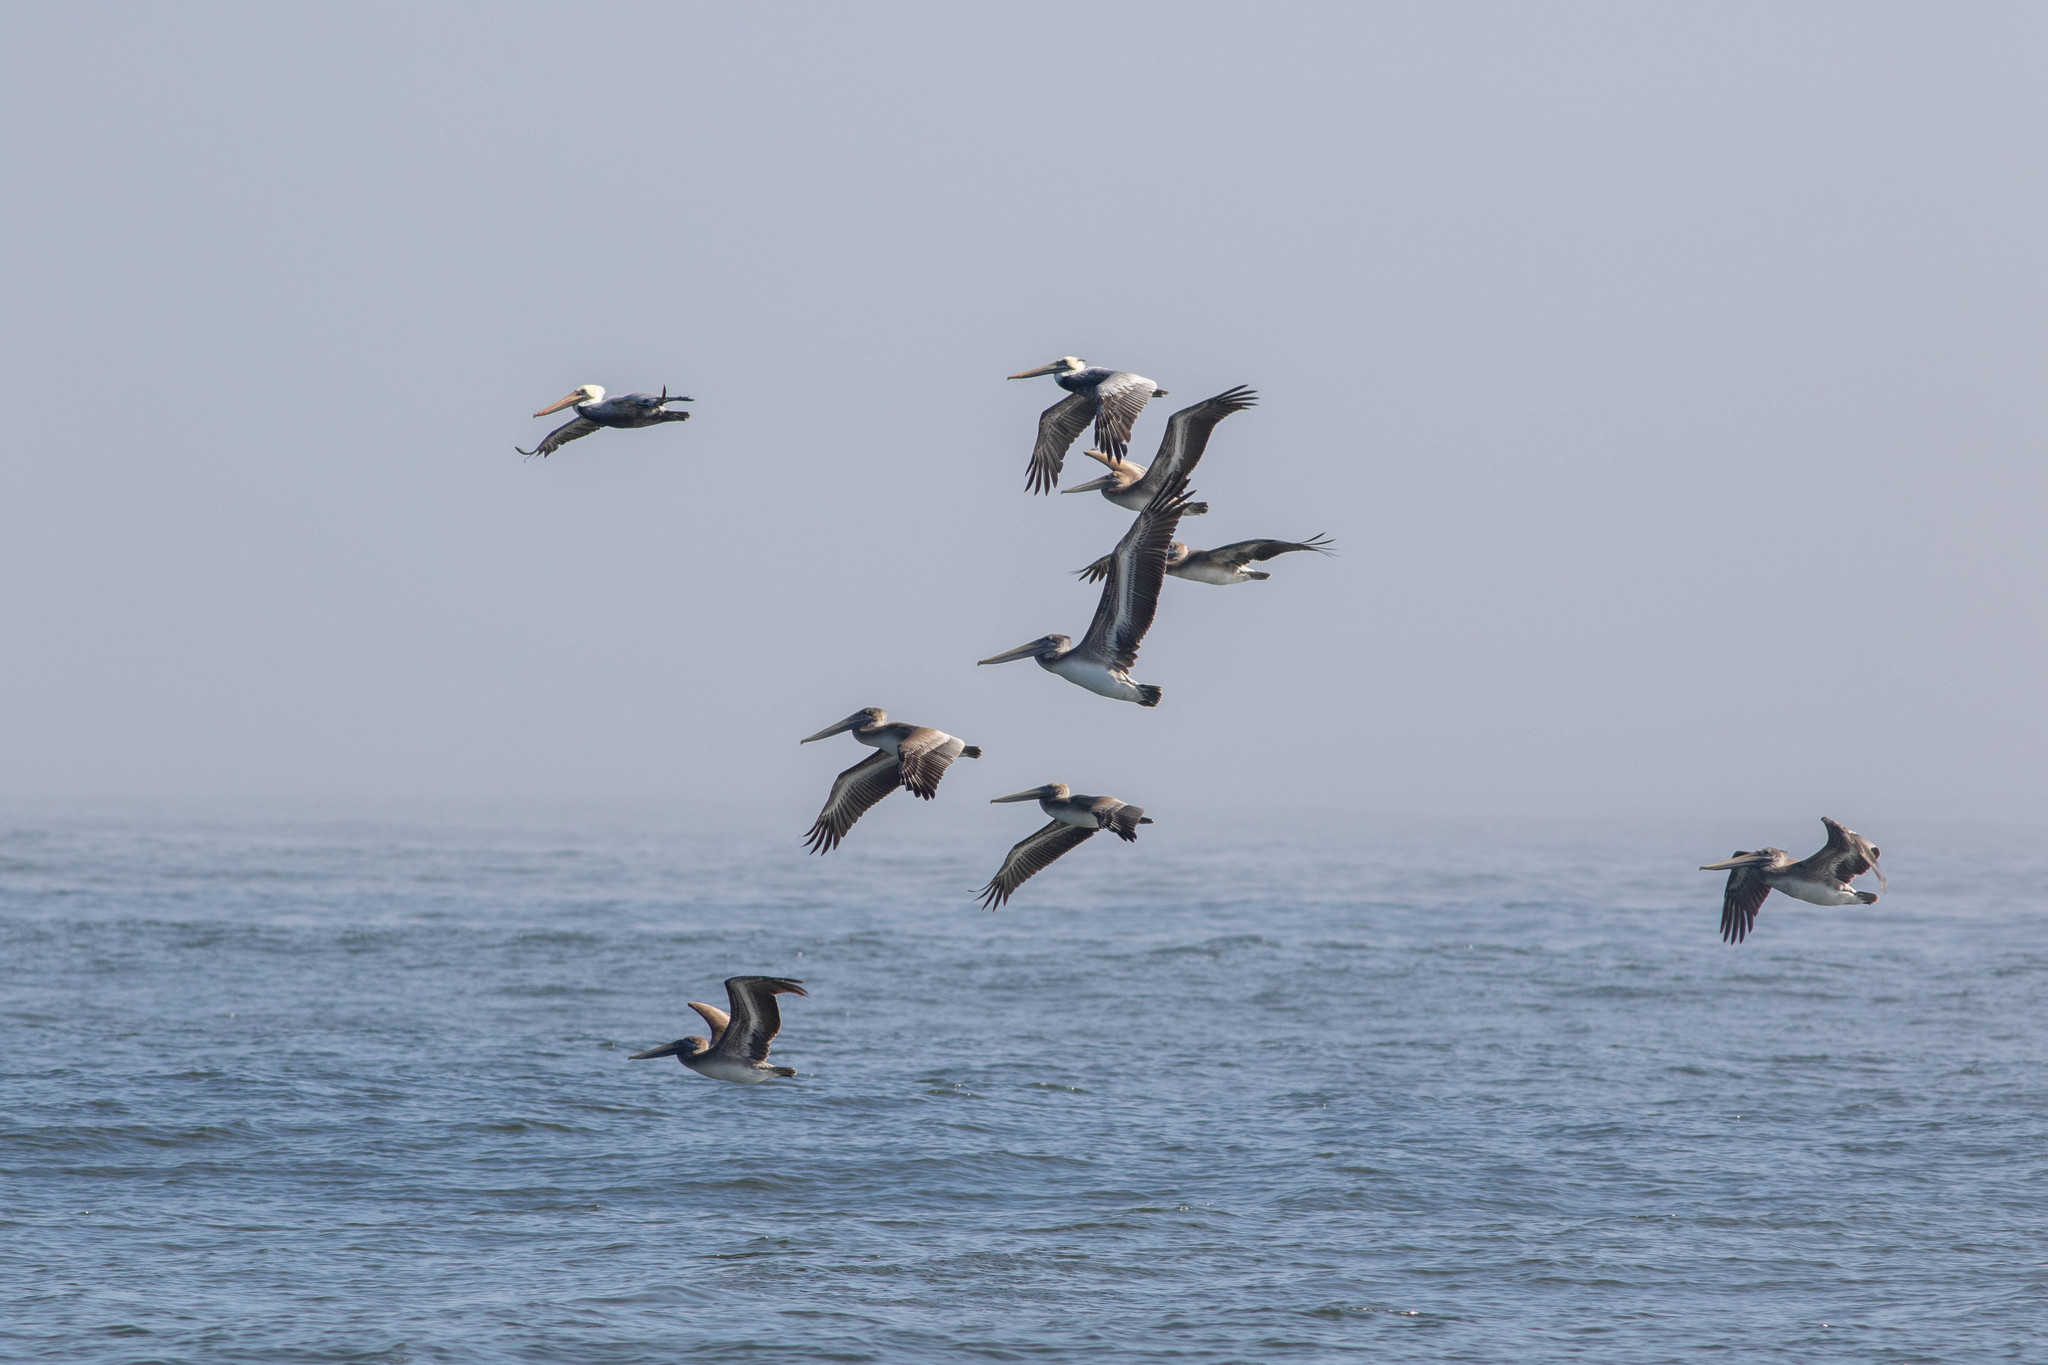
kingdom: Animalia
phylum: Chordata
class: Aves
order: Pelecaniformes
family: Pelecanidae
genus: Pelecanus
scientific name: Pelecanus occidentalis
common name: Brown pelican
